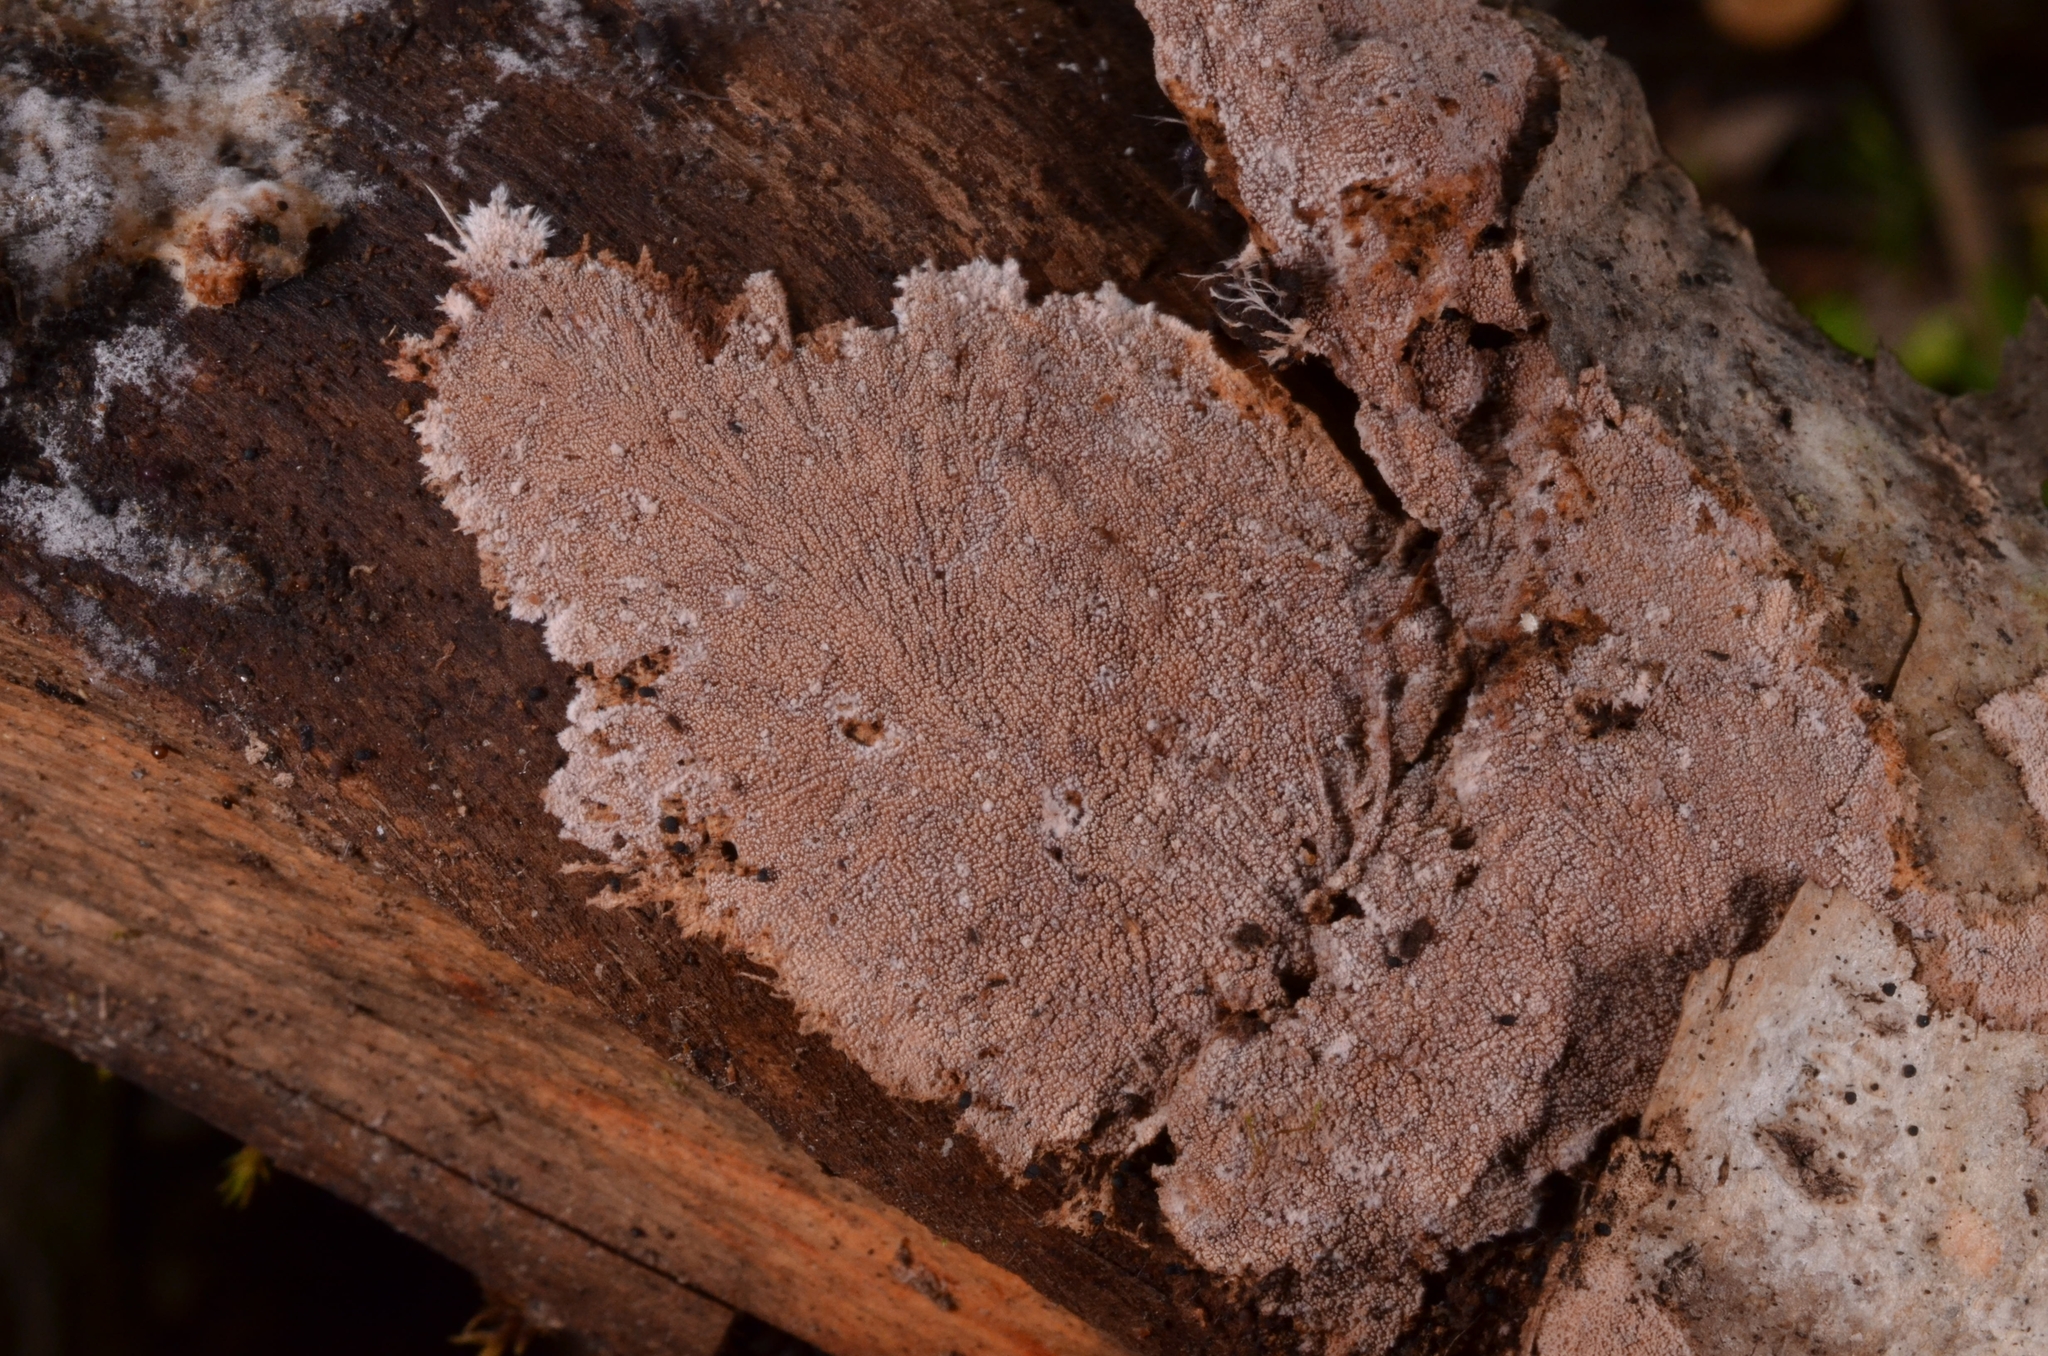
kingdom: Fungi
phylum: Basidiomycota
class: Agaricomycetes
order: Polyporales
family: Steccherinaceae
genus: Steccherinum
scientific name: Steccherinum fimbriatum
